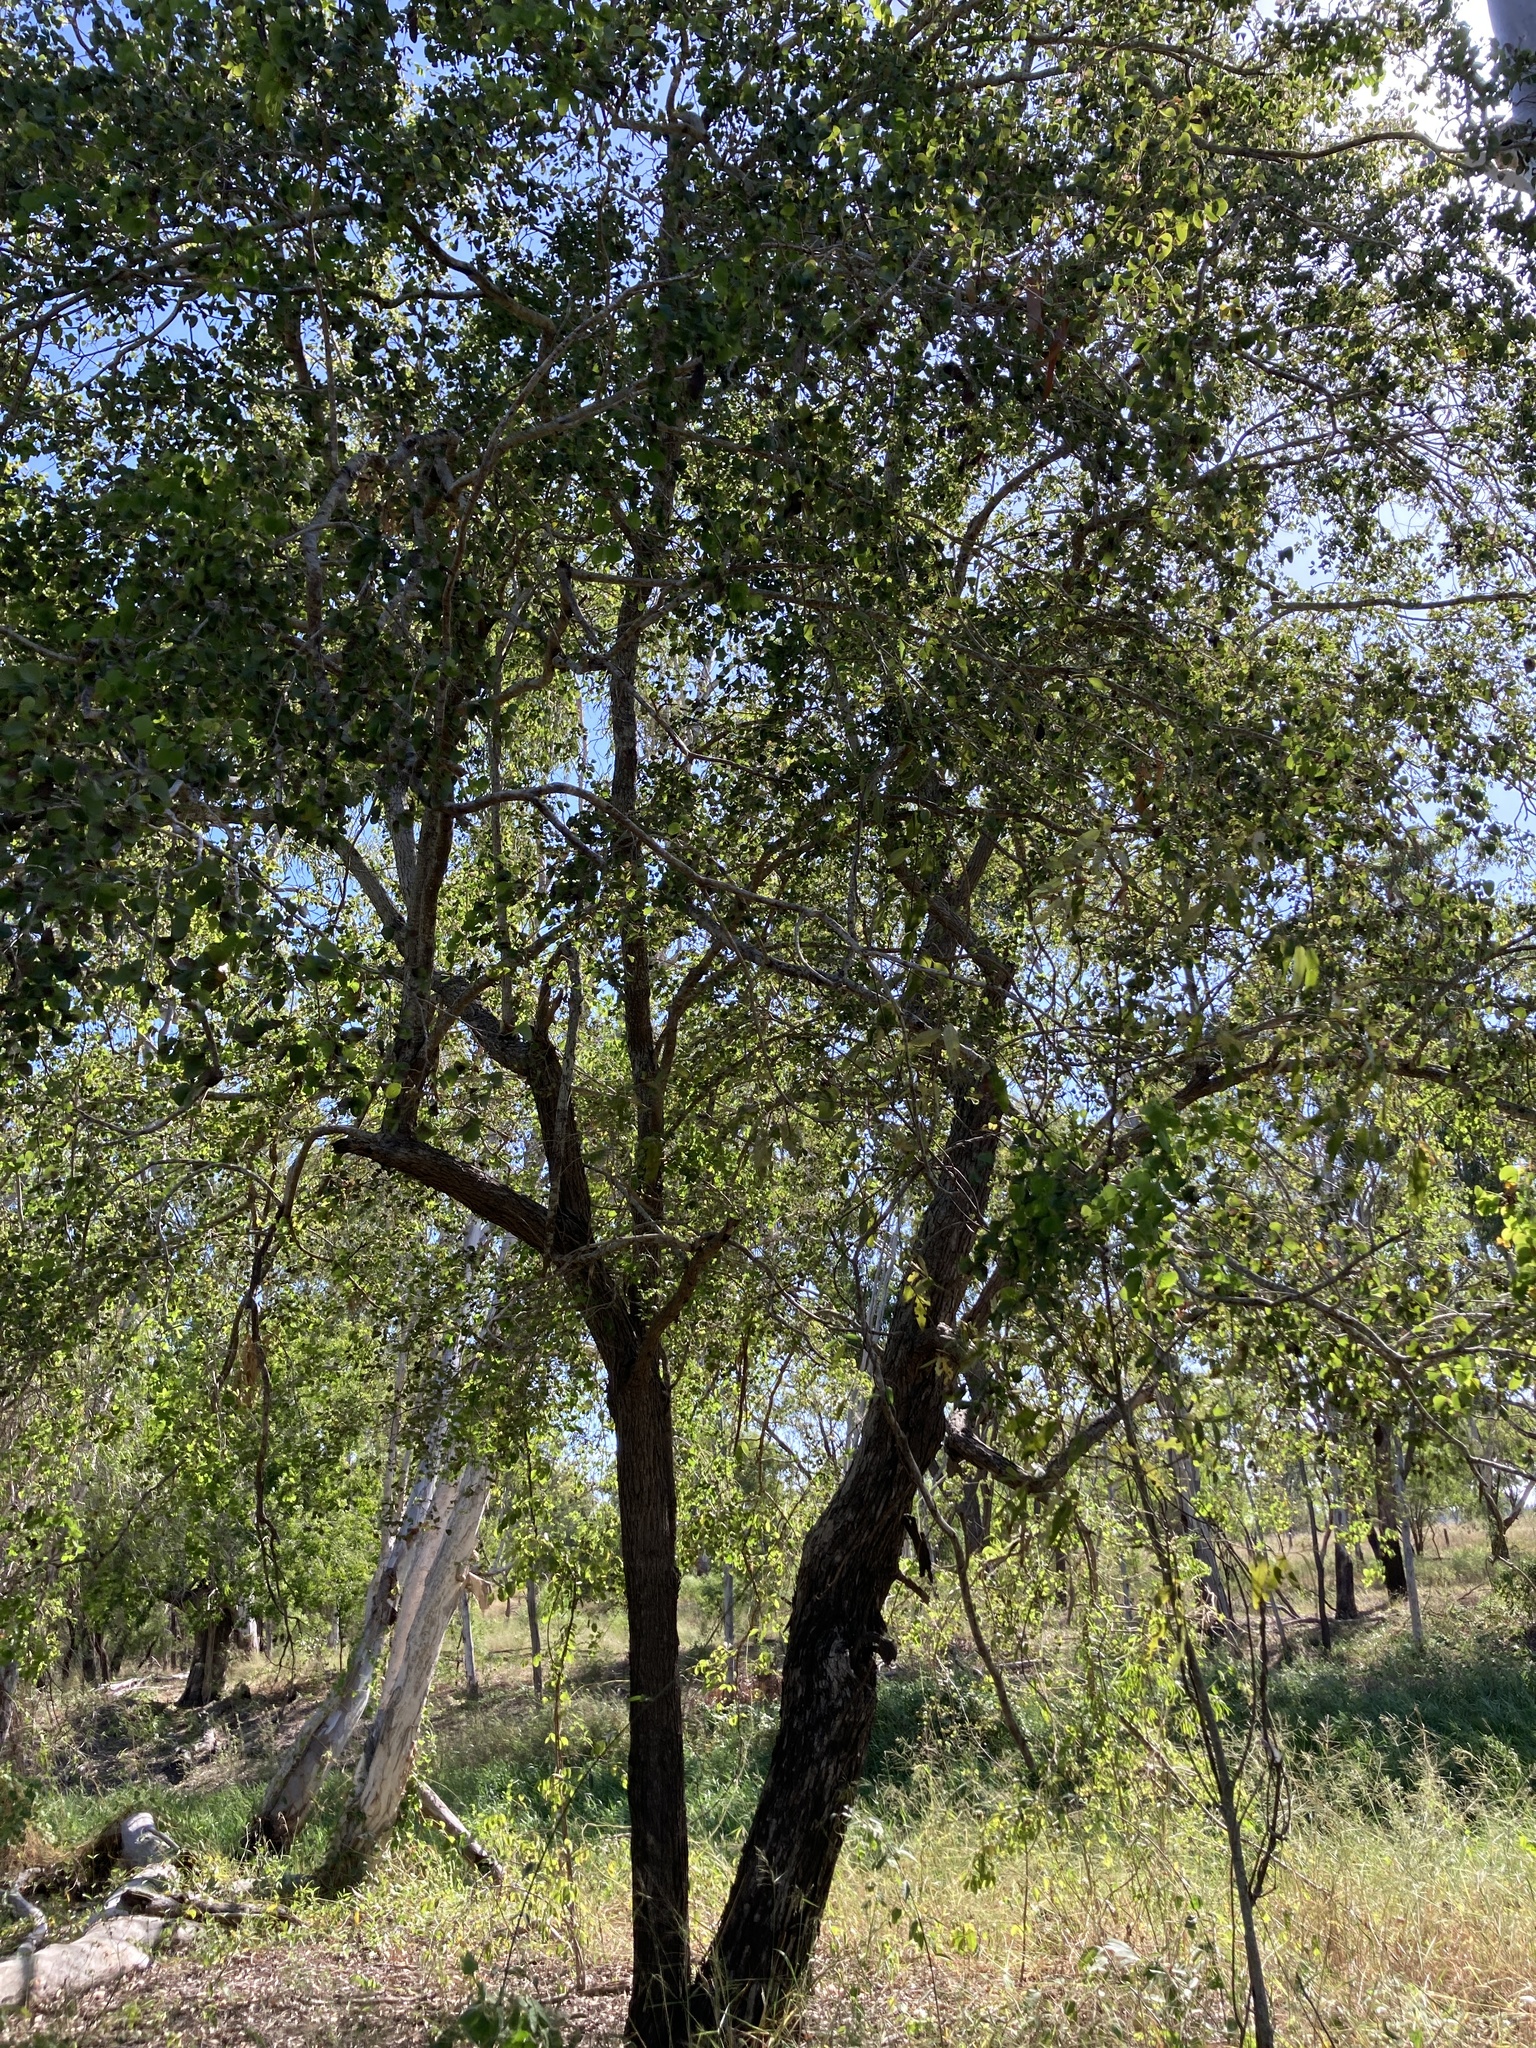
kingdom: Plantae
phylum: Tracheophyta
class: Magnoliopsida
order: Fabales
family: Fabaceae
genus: Lysiphyllum
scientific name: Lysiphyllum hookeri
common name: Hooker's bauhinia
